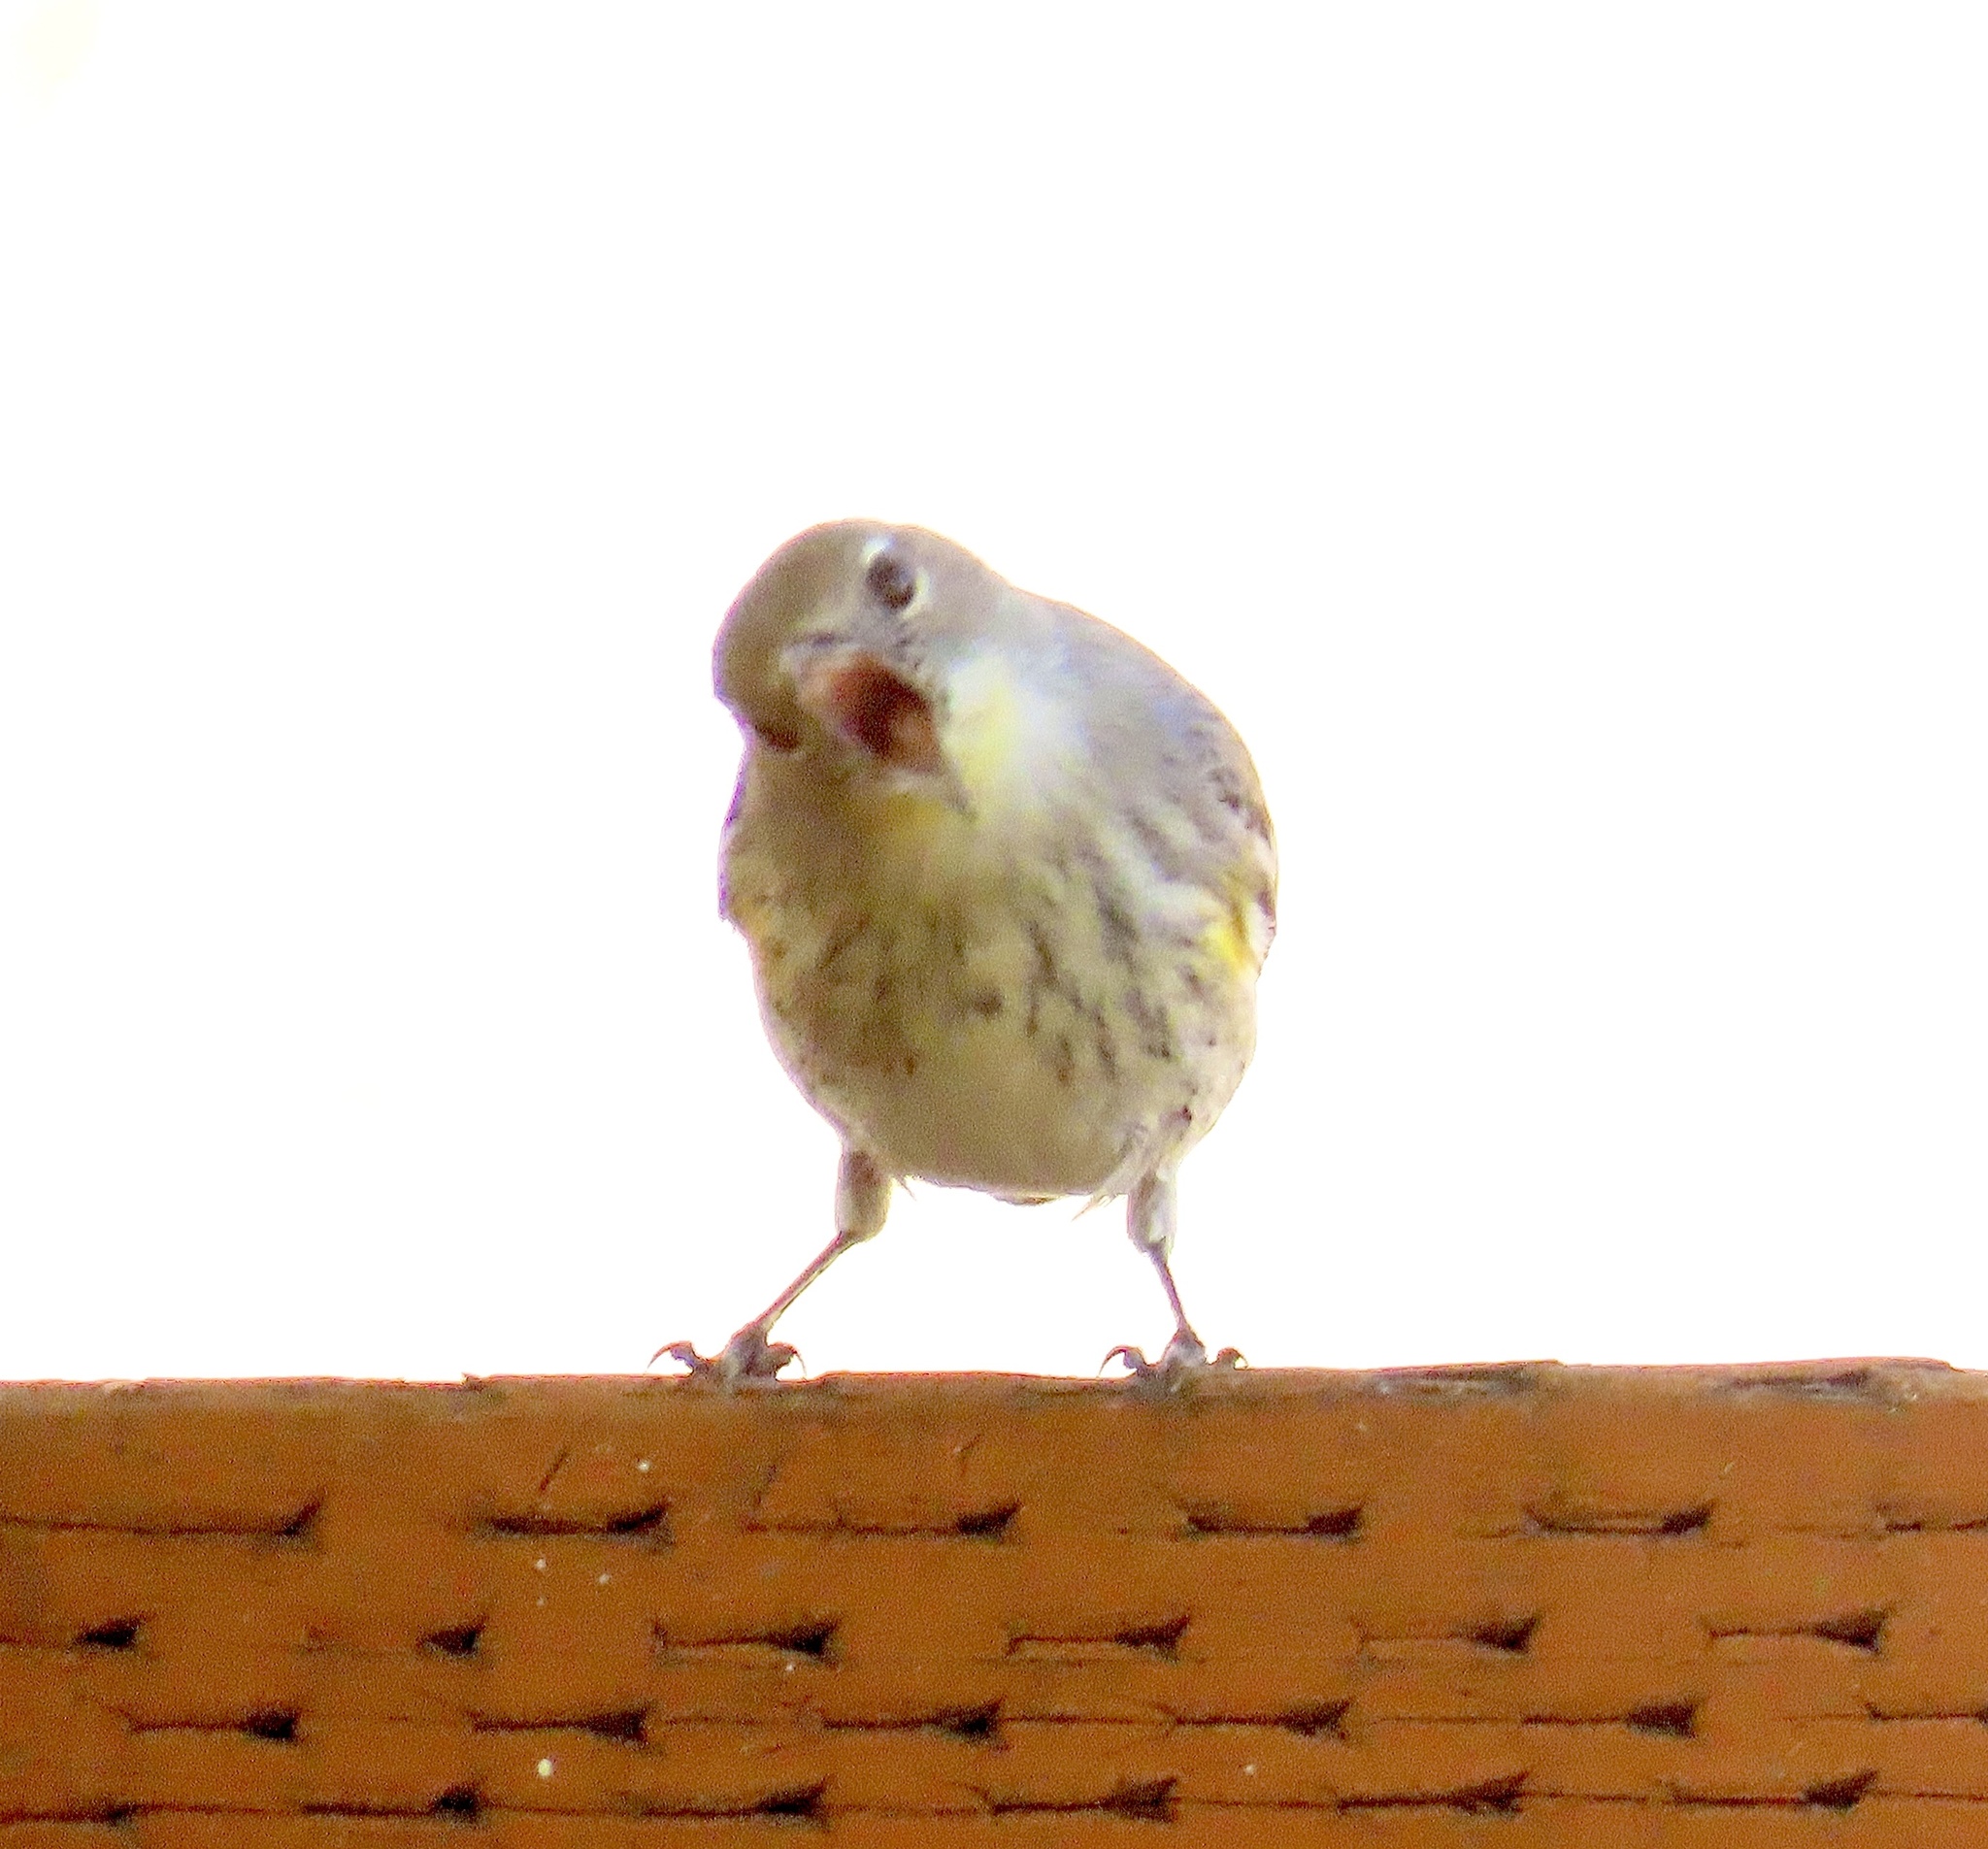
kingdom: Animalia
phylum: Chordata
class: Aves
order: Passeriformes
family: Parulidae
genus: Setophaga
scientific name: Setophaga coronata
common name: Myrtle warbler
